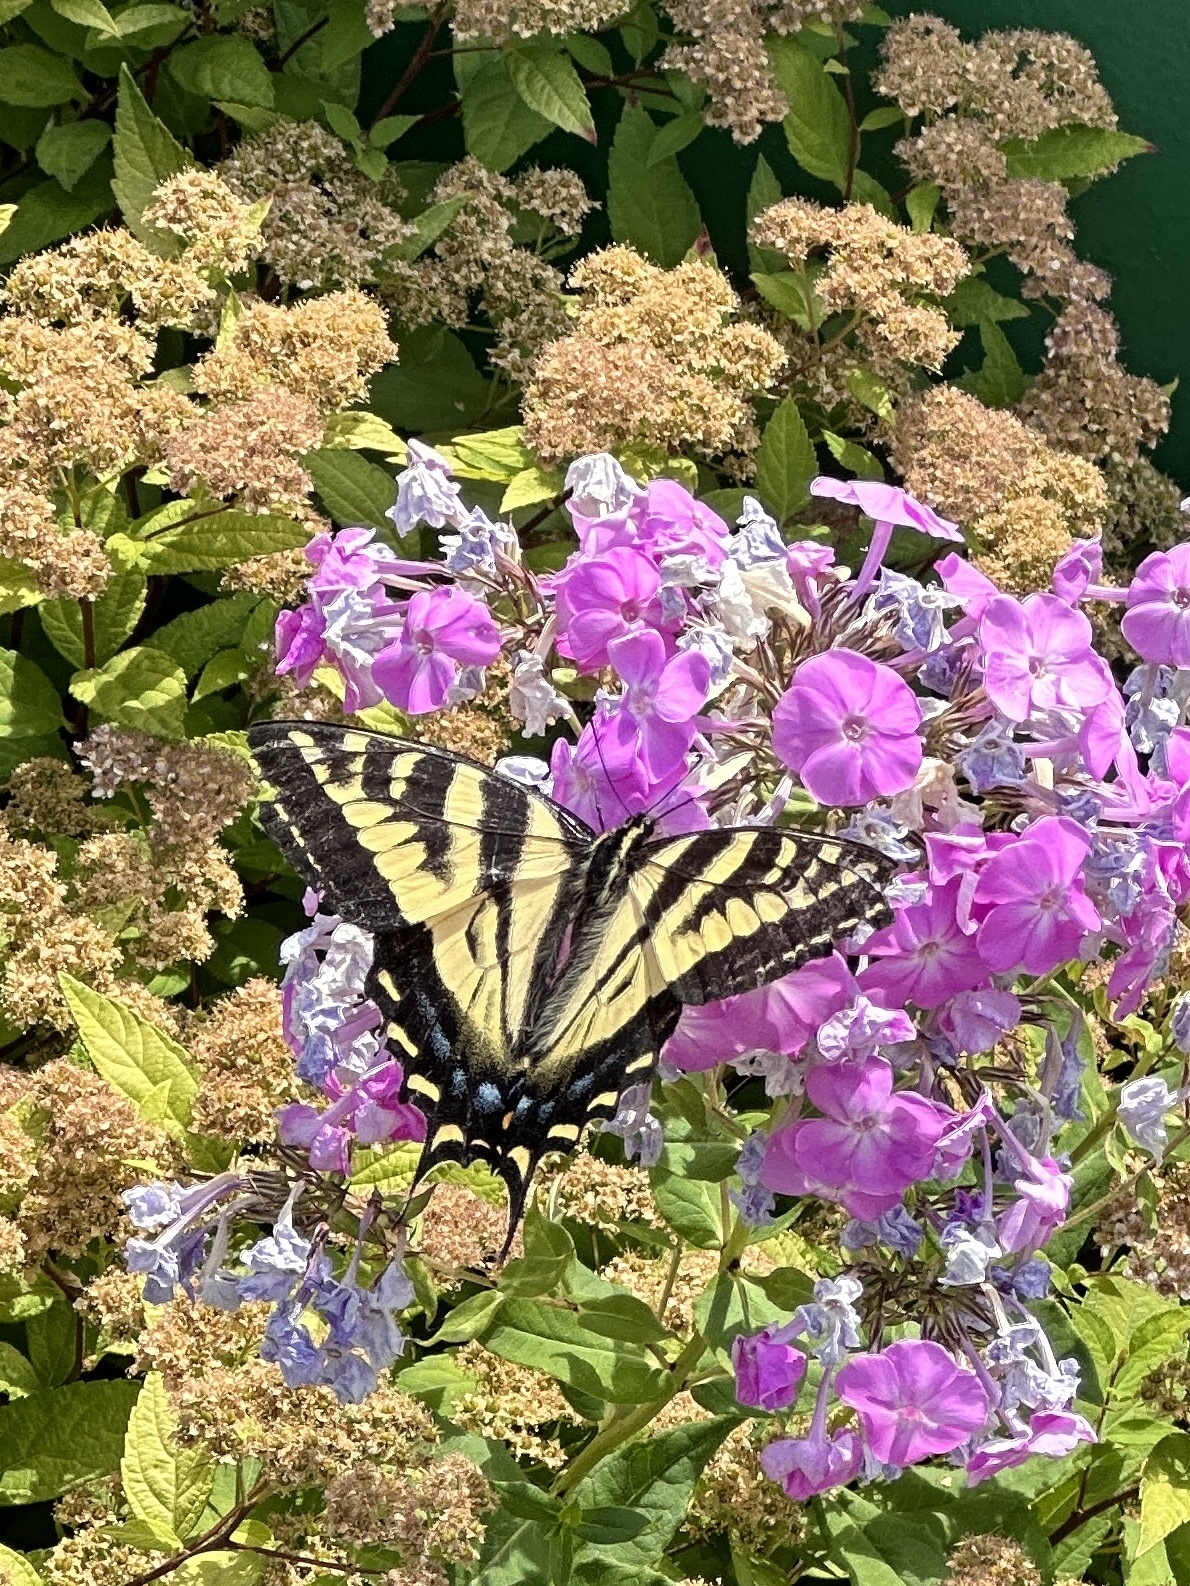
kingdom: Animalia
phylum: Arthropoda
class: Insecta
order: Lepidoptera
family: Papilionidae
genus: Papilio
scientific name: Papilio rutulus
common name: Western tiger swallowtail
